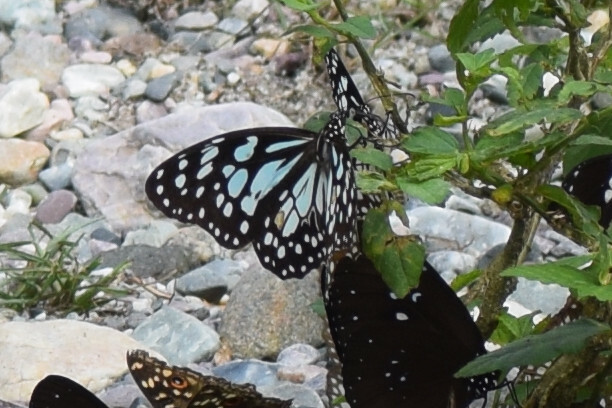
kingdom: Animalia
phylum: Arthropoda
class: Insecta
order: Lepidoptera
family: Nymphalidae
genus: Tirumala
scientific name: Tirumala limniace
